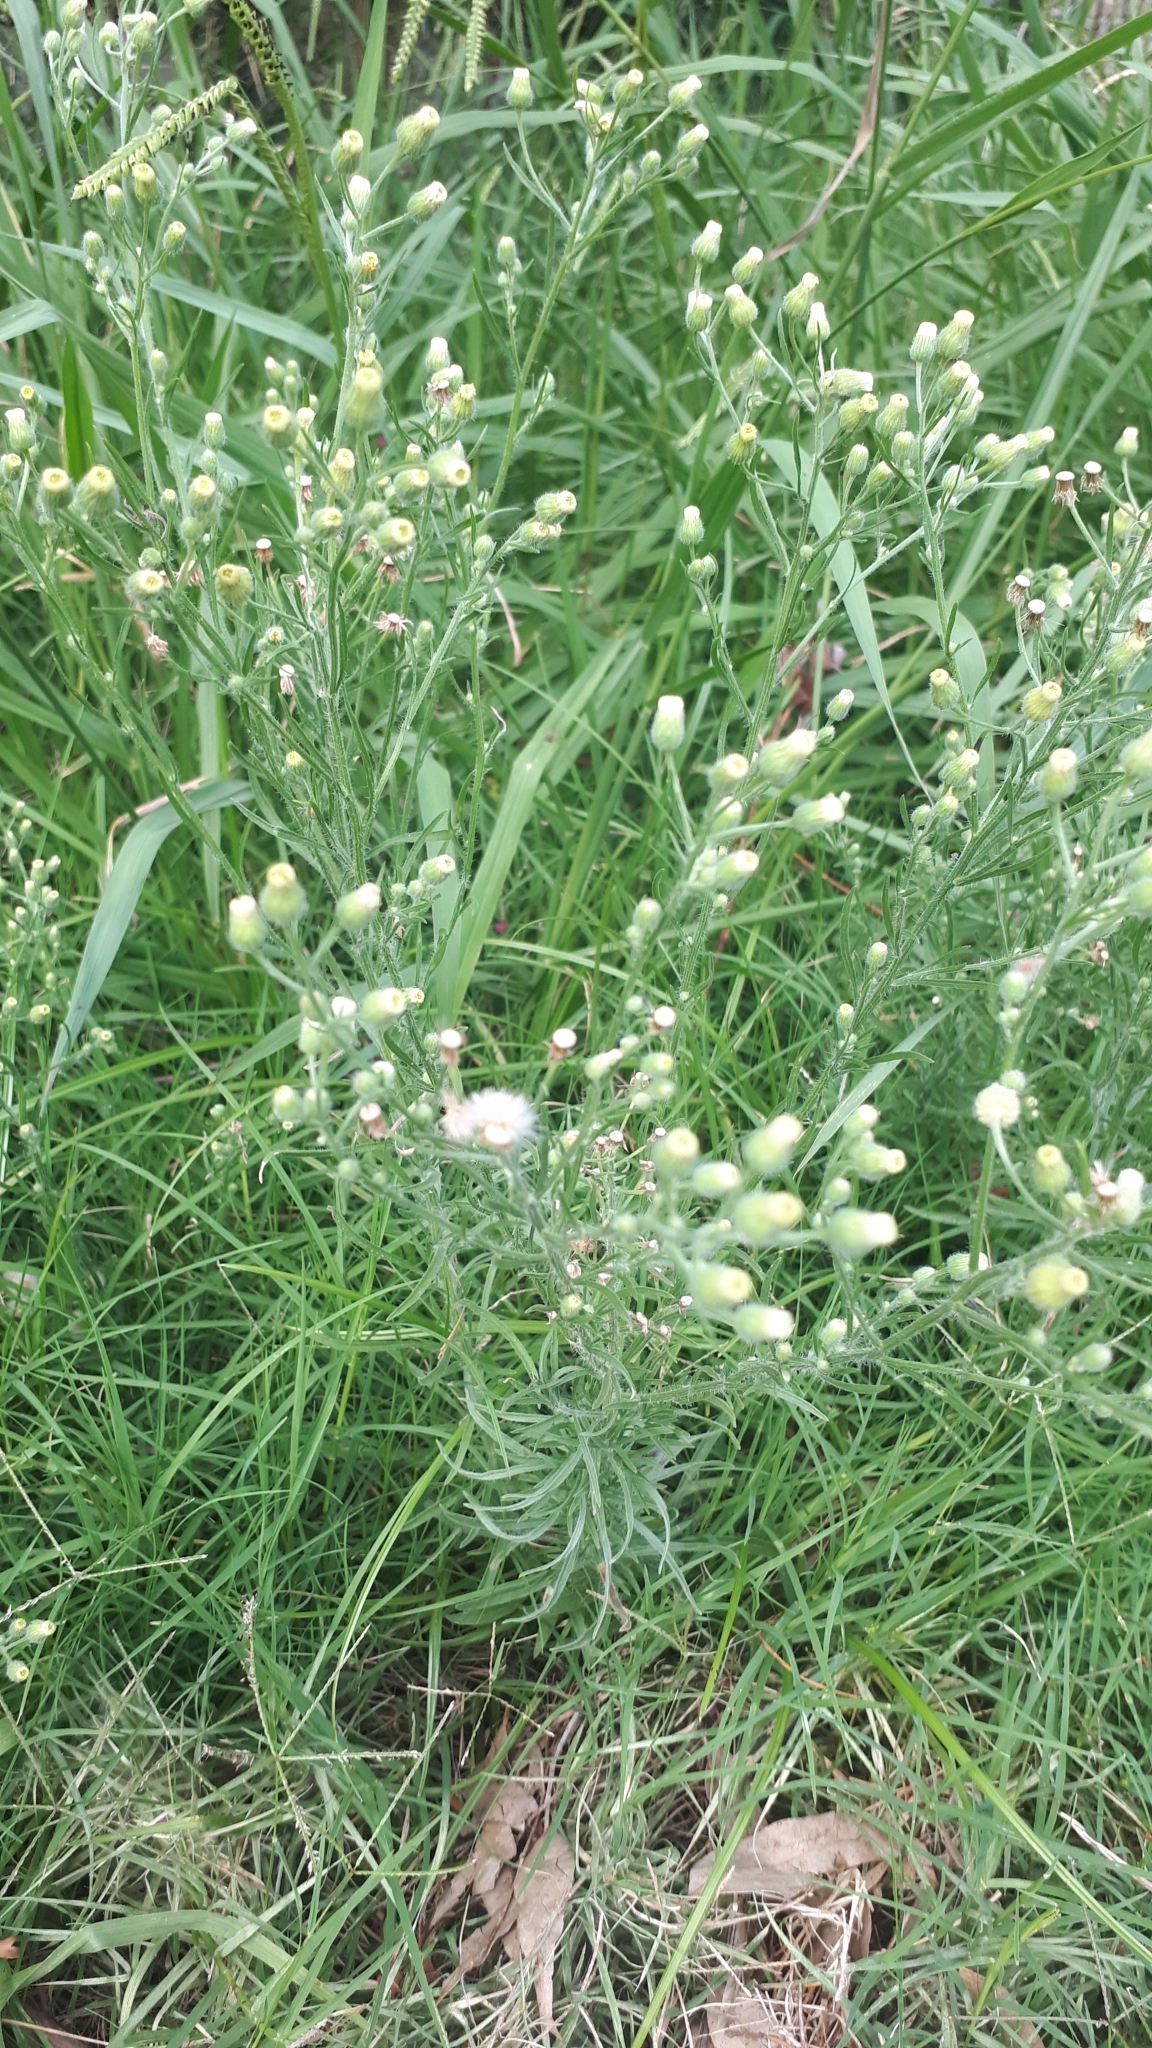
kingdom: Plantae
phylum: Tracheophyta
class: Magnoliopsida
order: Asterales
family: Asteraceae
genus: Erigeron
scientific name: Erigeron bonariensis
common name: Argentine fleabane
